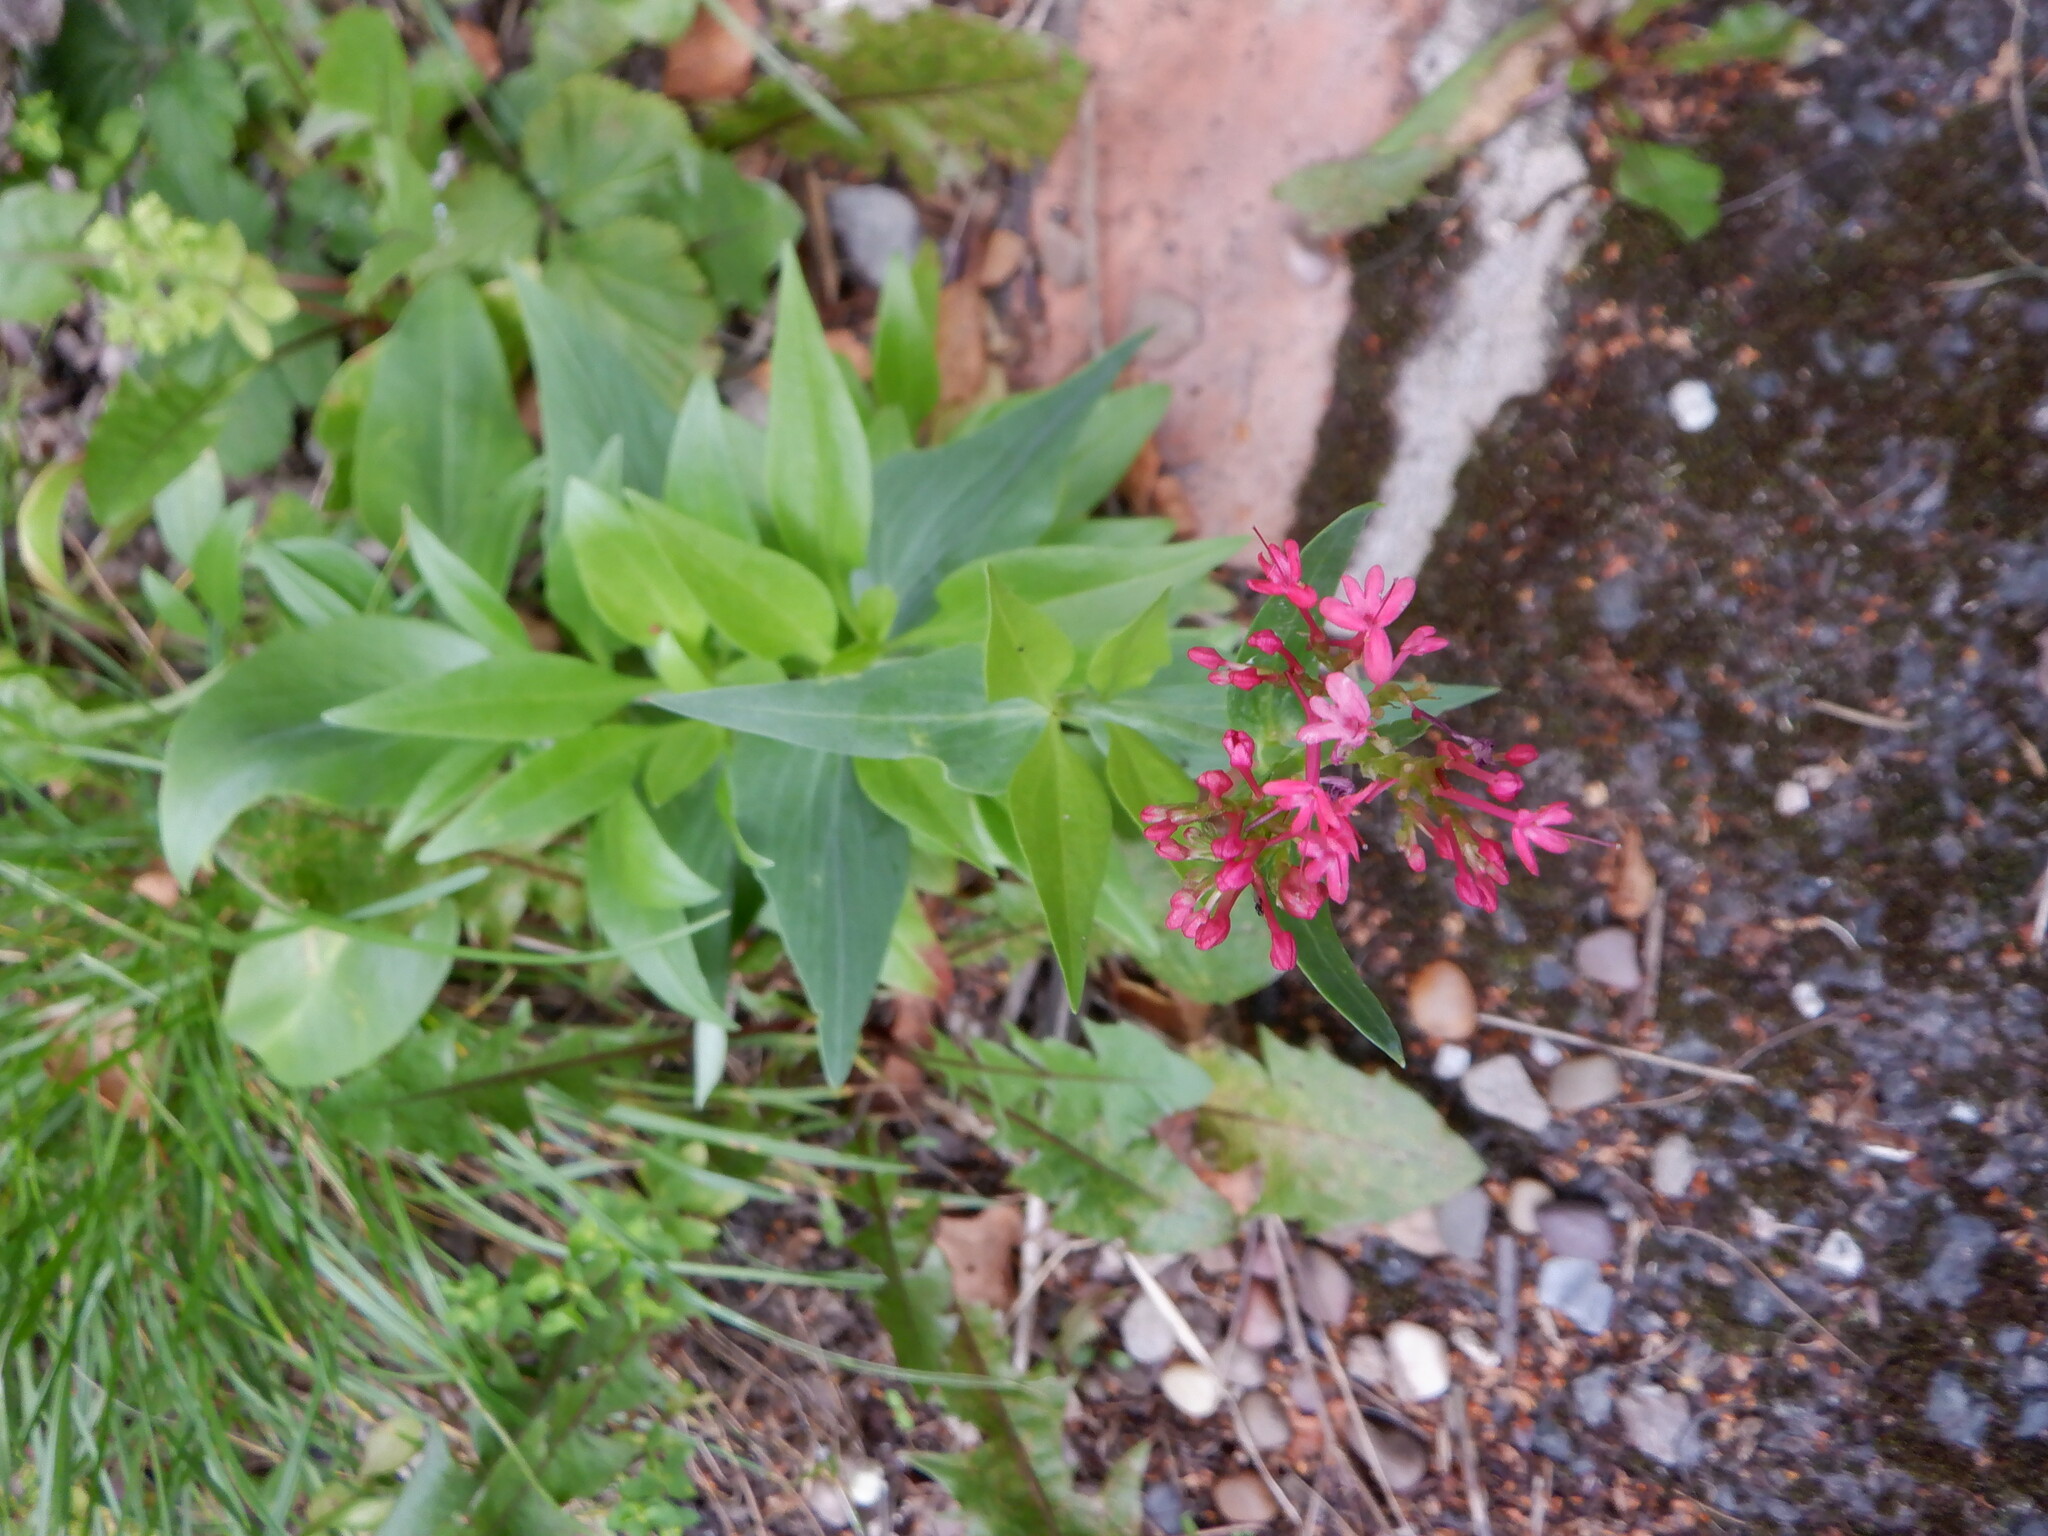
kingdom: Plantae
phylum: Tracheophyta
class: Magnoliopsida
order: Dipsacales
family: Caprifoliaceae
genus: Centranthus
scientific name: Centranthus ruber
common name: Red valerian
